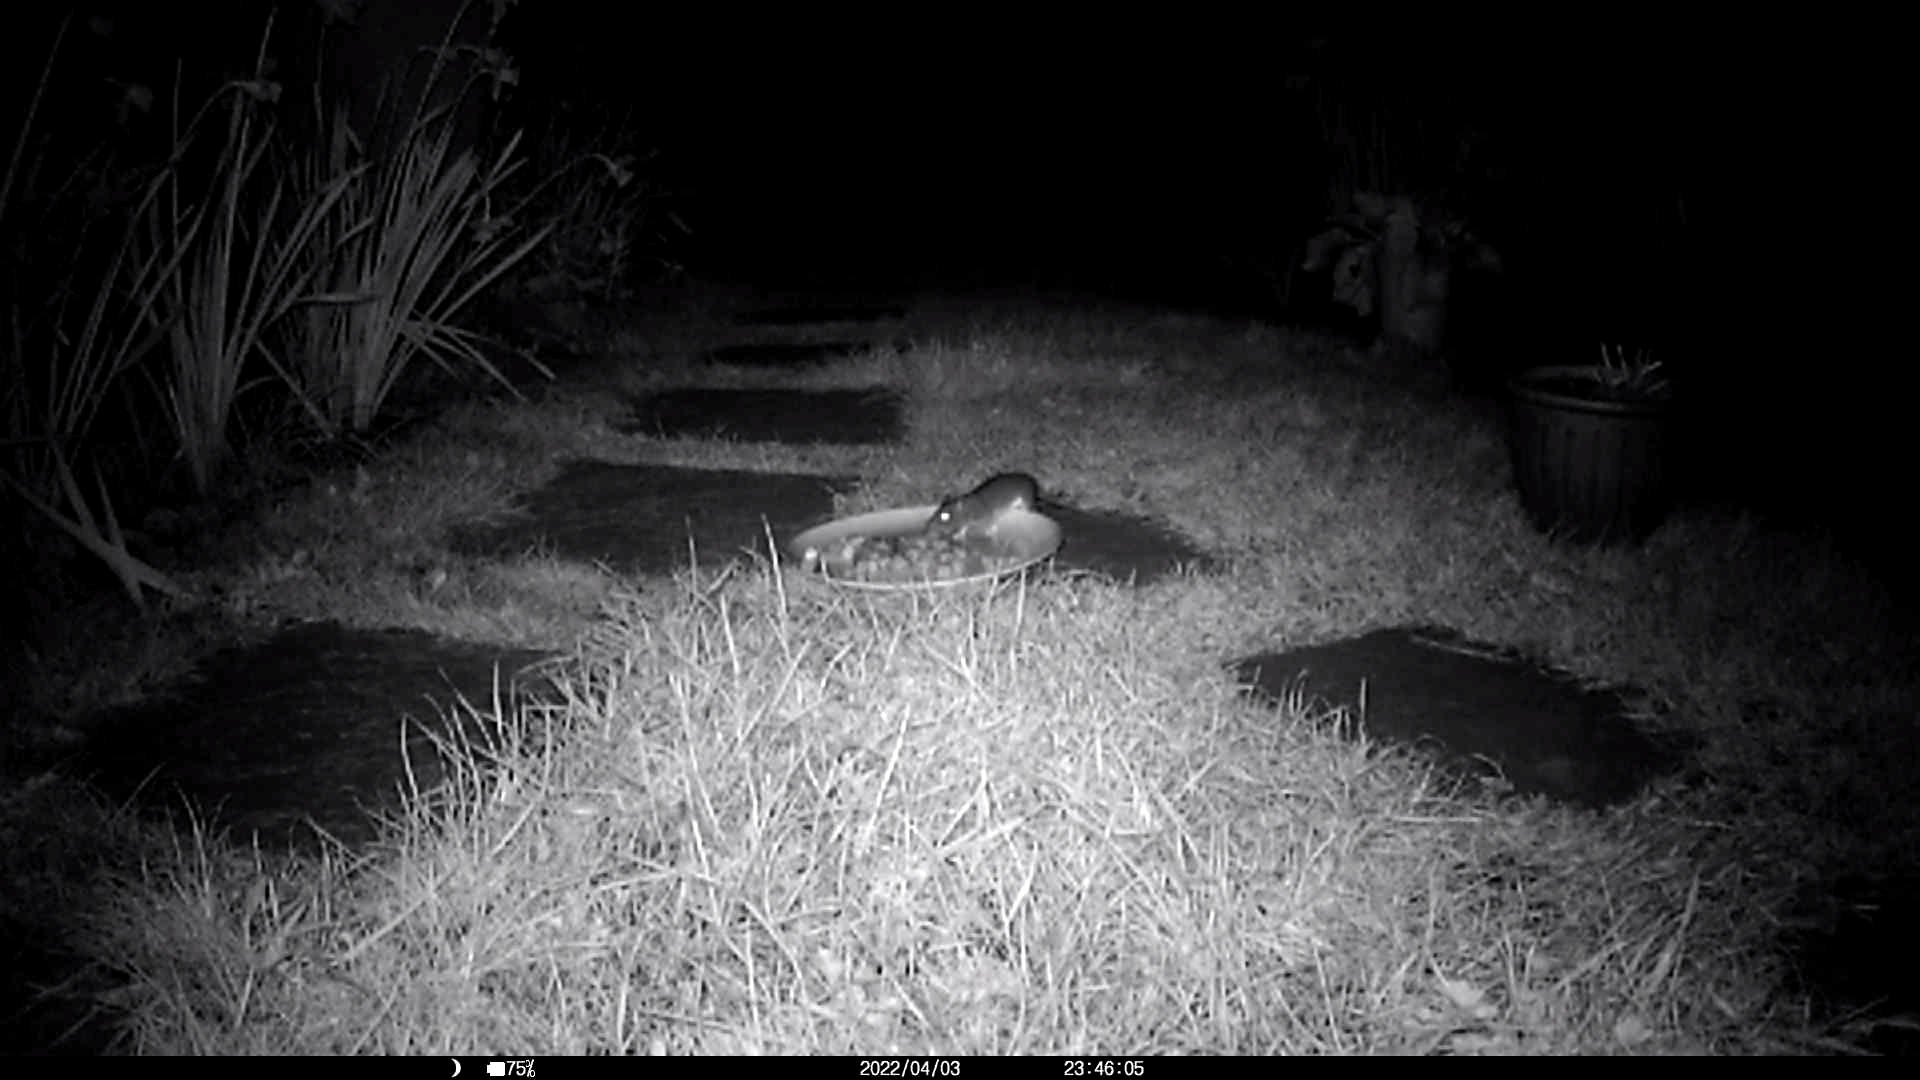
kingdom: Animalia
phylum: Chordata
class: Mammalia
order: Rodentia
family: Muridae
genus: Rattus
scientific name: Rattus norvegicus
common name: Brown rat
